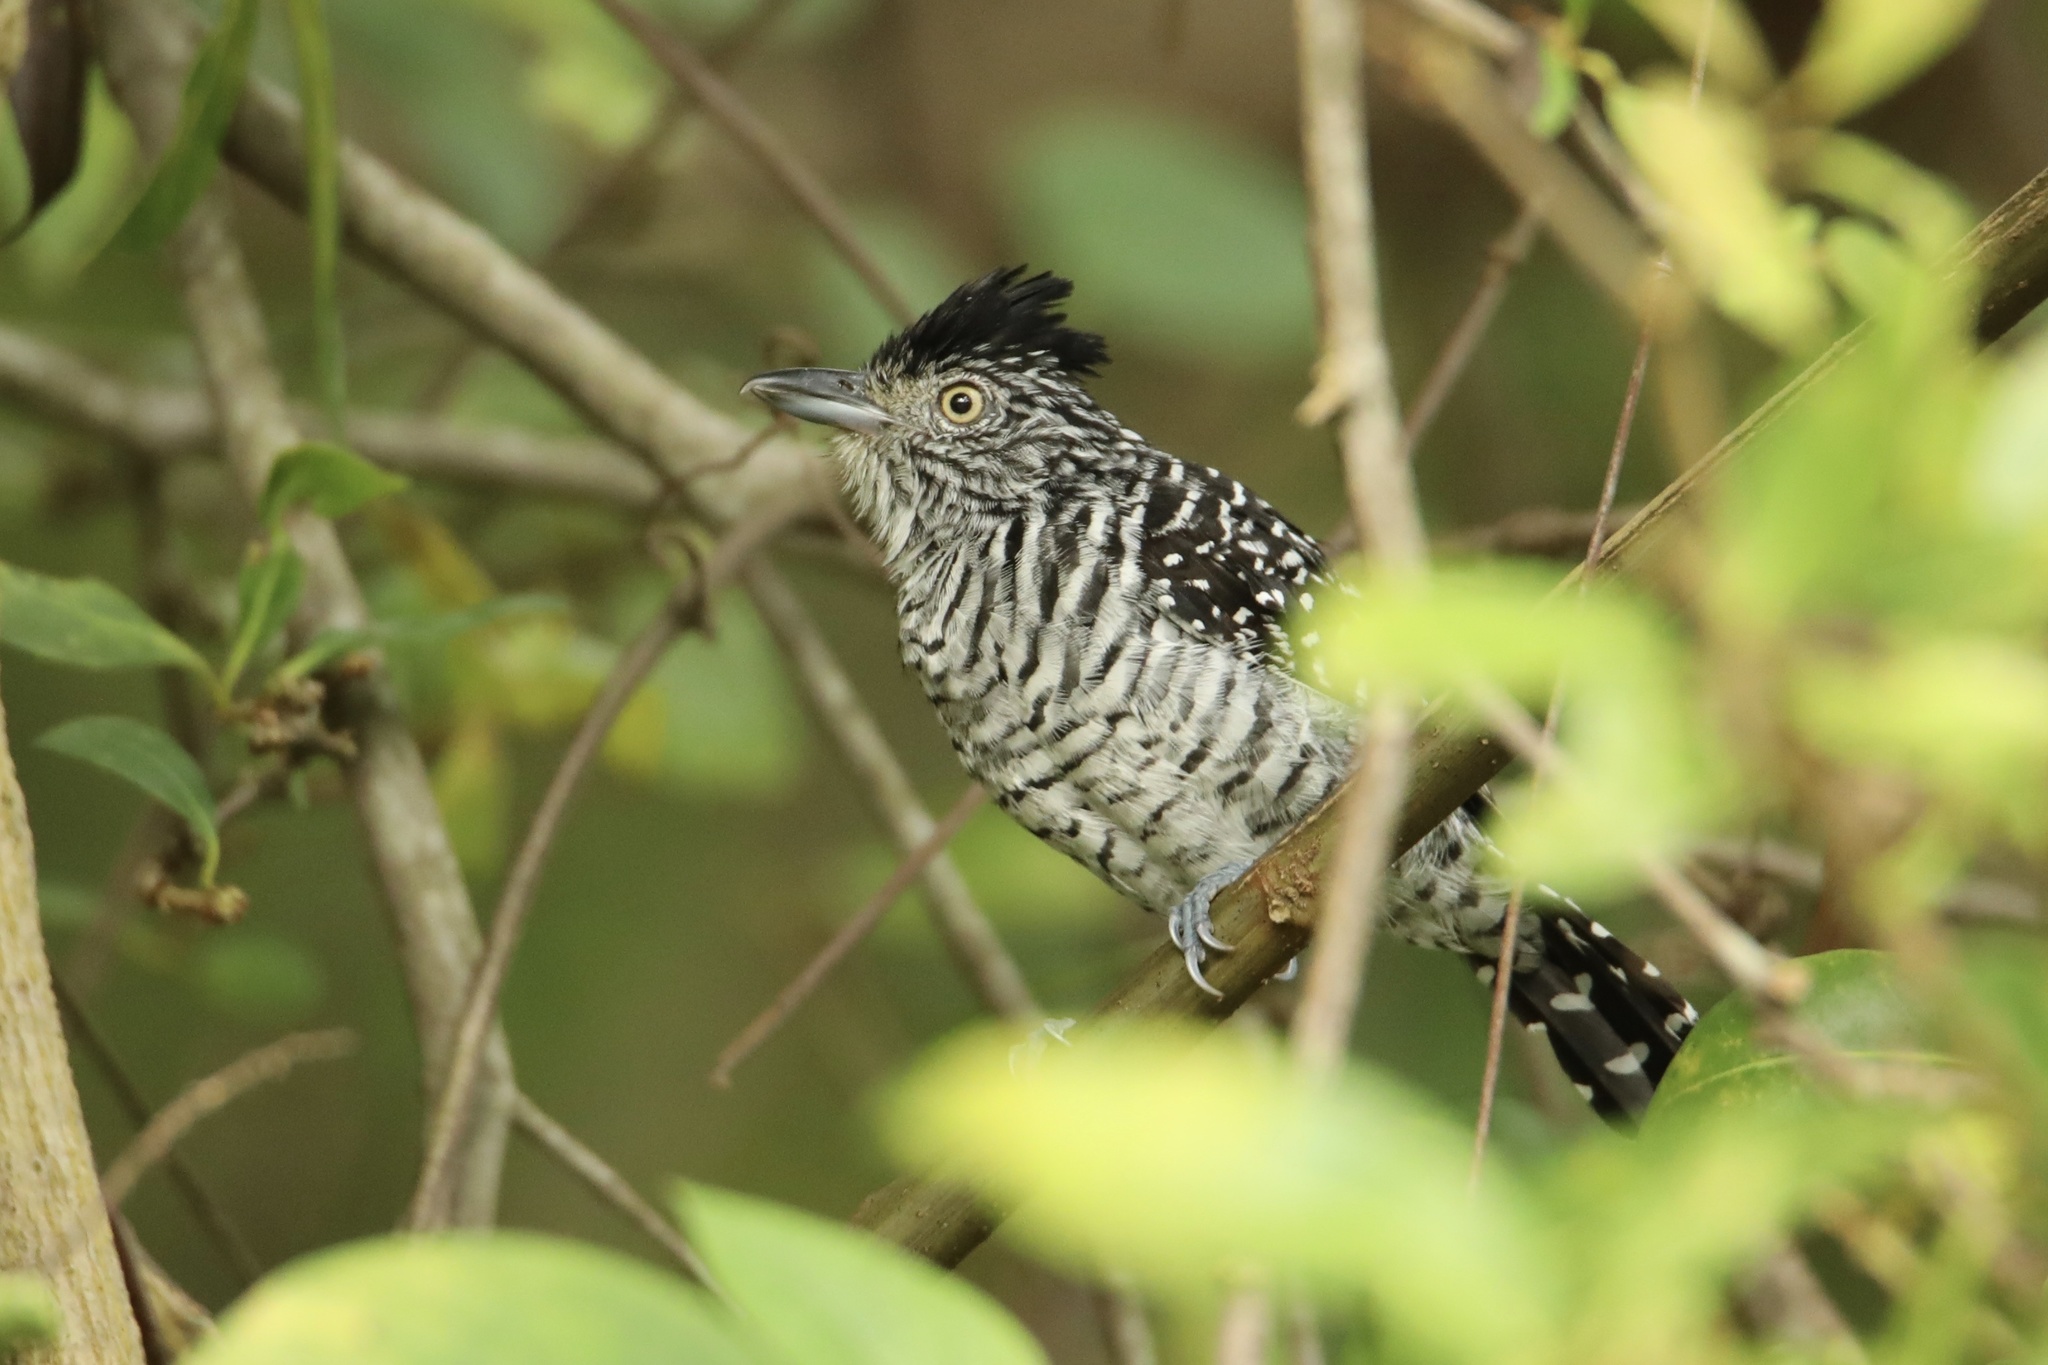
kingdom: Animalia
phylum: Chordata
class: Aves
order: Passeriformes
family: Thamnophilidae
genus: Thamnophilus
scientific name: Thamnophilus doliatus
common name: Barred antshrike
